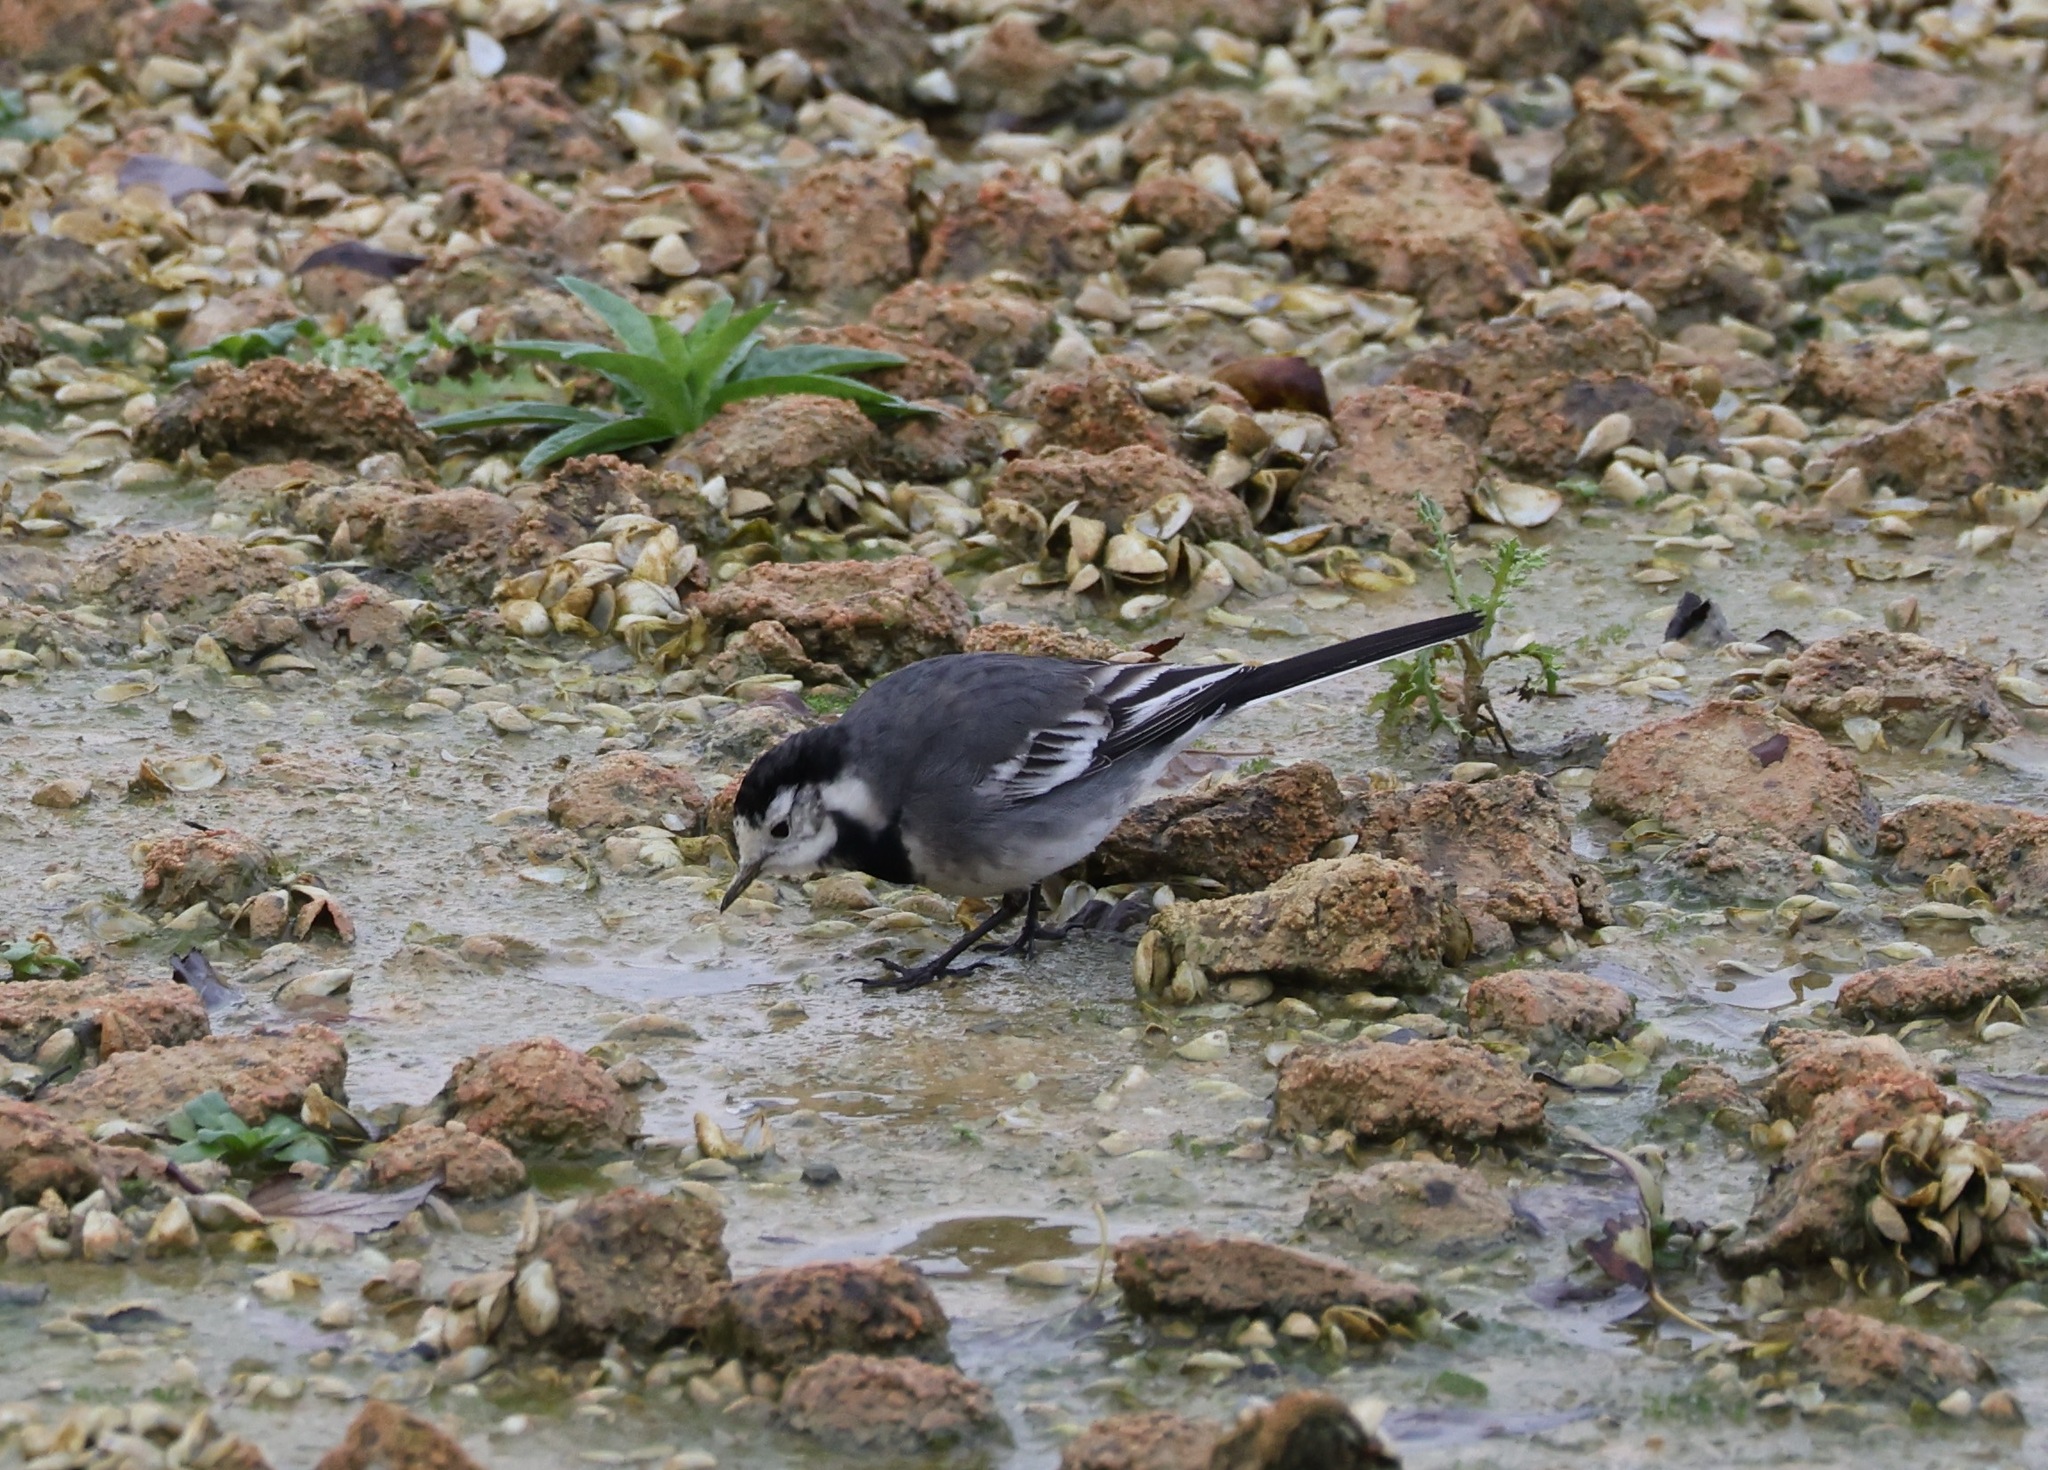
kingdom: Animalia
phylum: Chordata
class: Aves
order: Passeriformes
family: Motacillidae
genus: Motacilla
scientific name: Motacilla alba
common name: White wagtail
